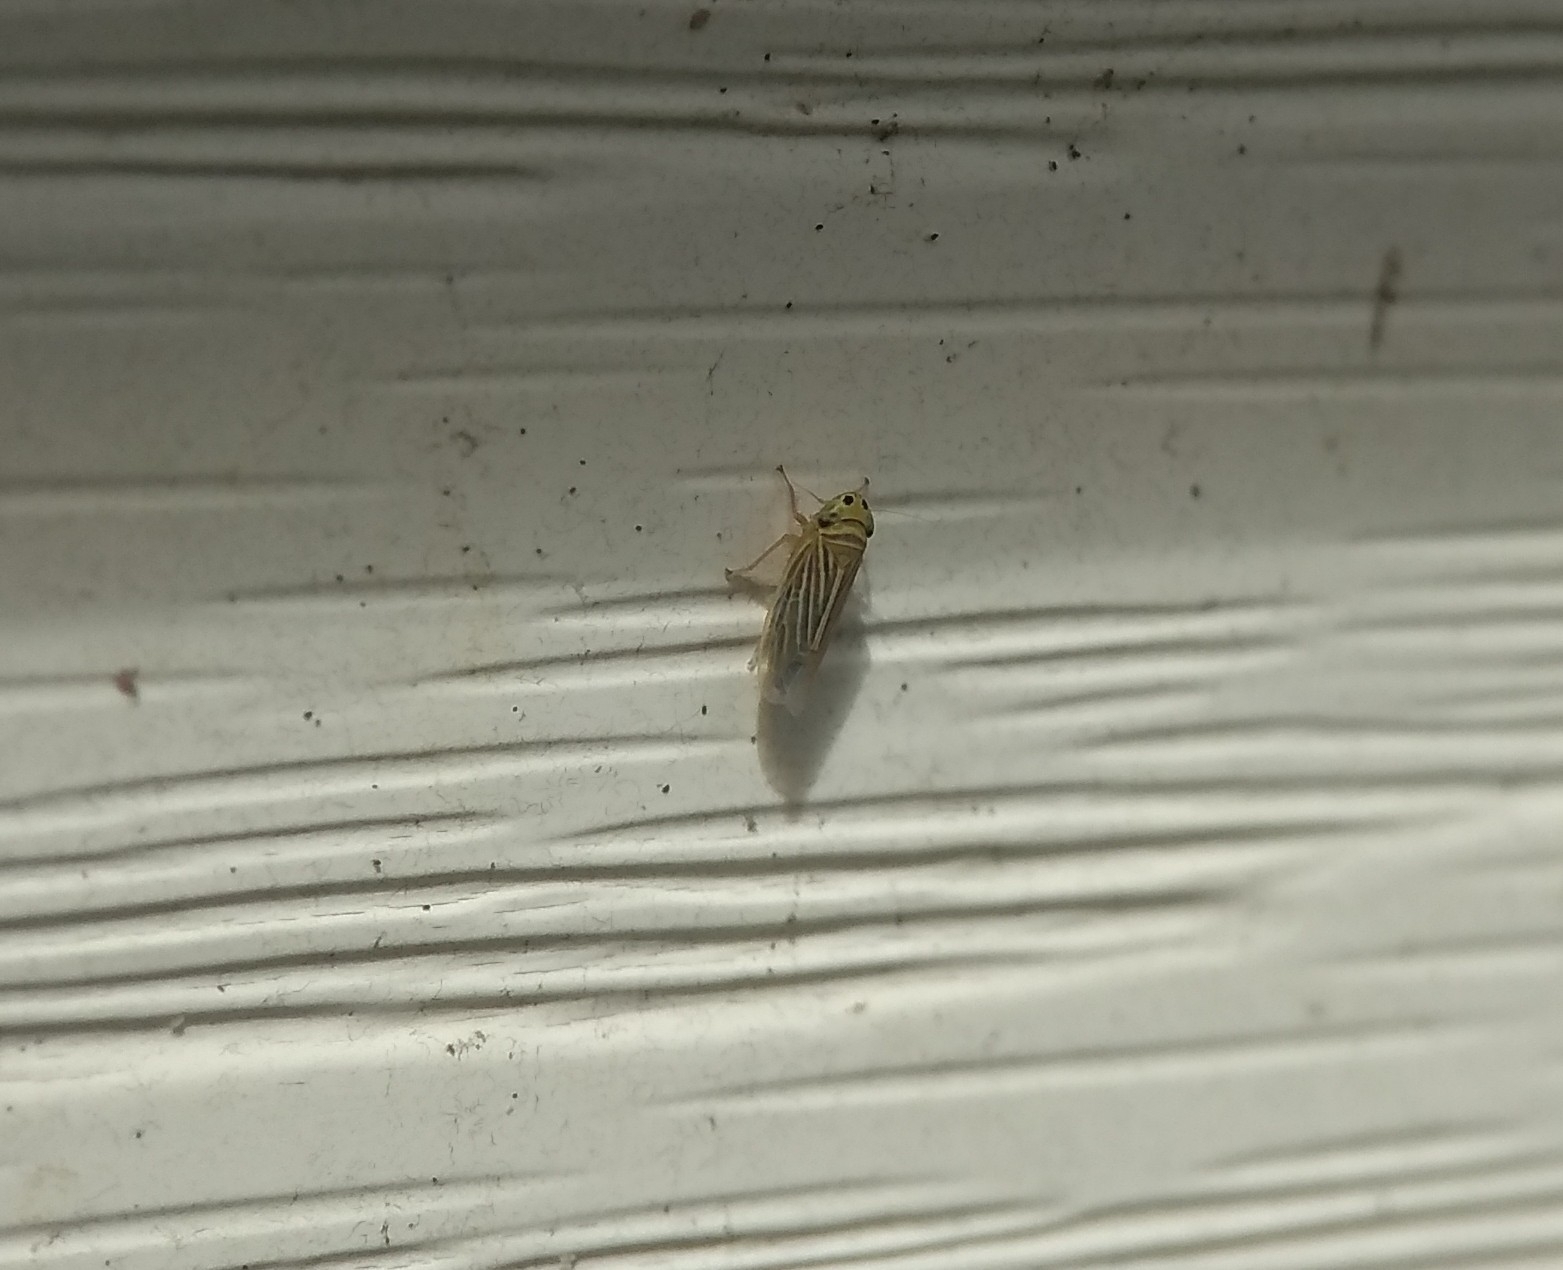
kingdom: Animalia
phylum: Arthropoda
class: Insecta
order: Hemiptera
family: Cicadellidae
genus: Graminella
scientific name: Graminella villicus
